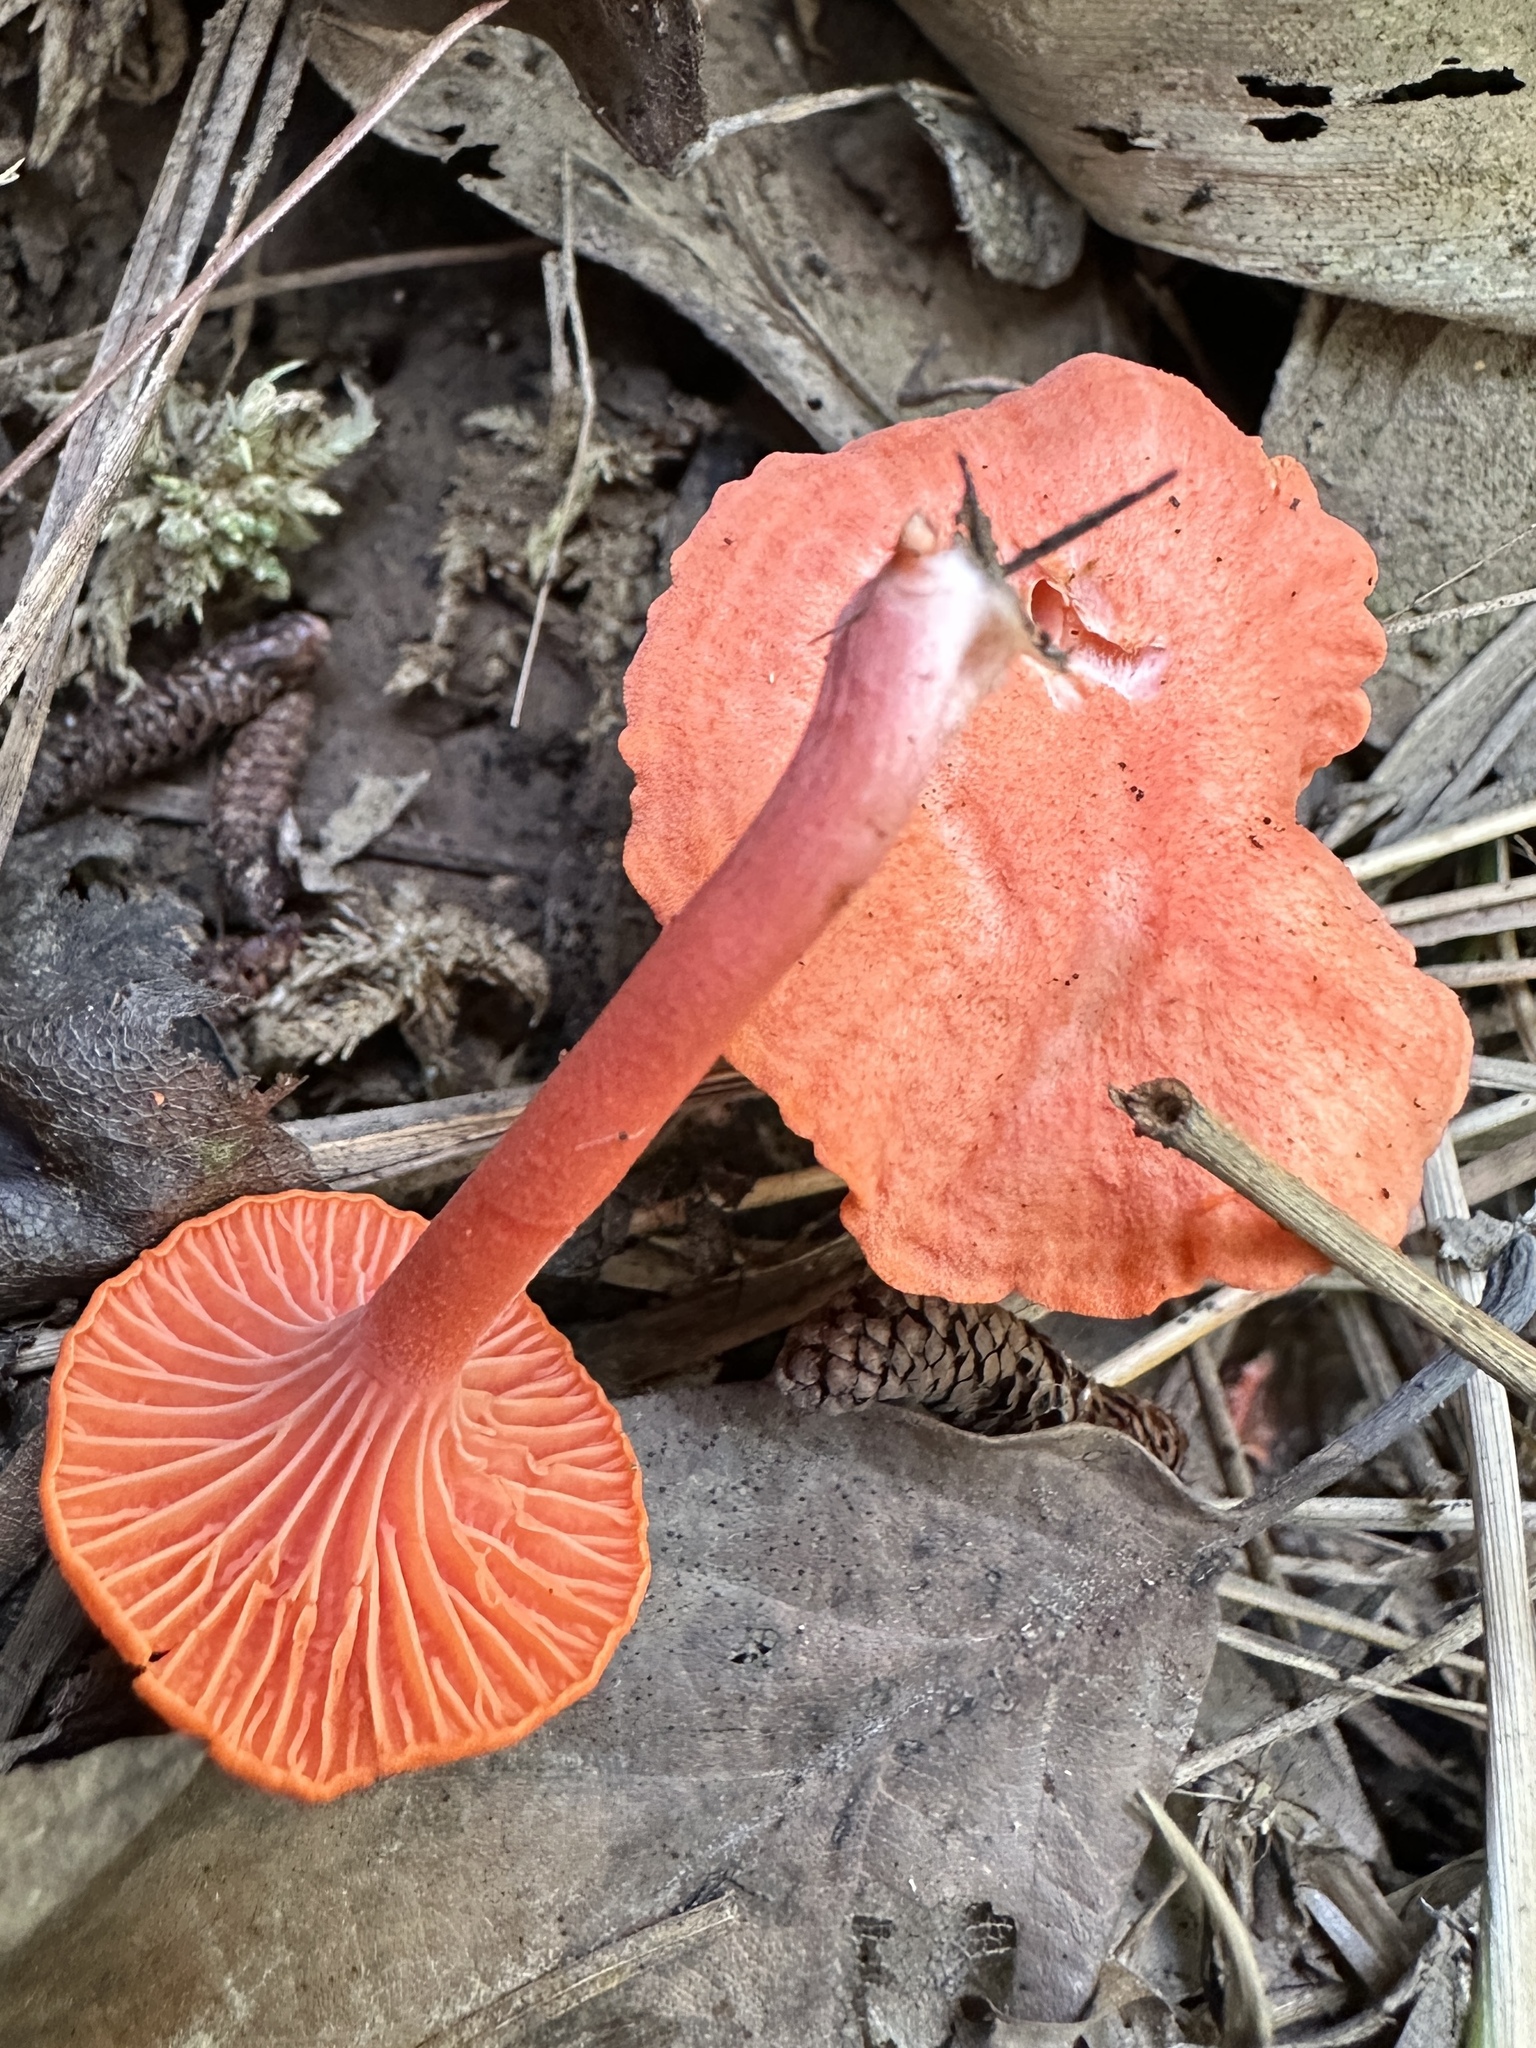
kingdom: Fungi
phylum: Basidiomycota
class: Agaricomycetes
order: Cantharellales
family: Hydnaceae
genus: Cantharellus
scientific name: Cantharellus cinnabarinus
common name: Cinnabar chanterelle
